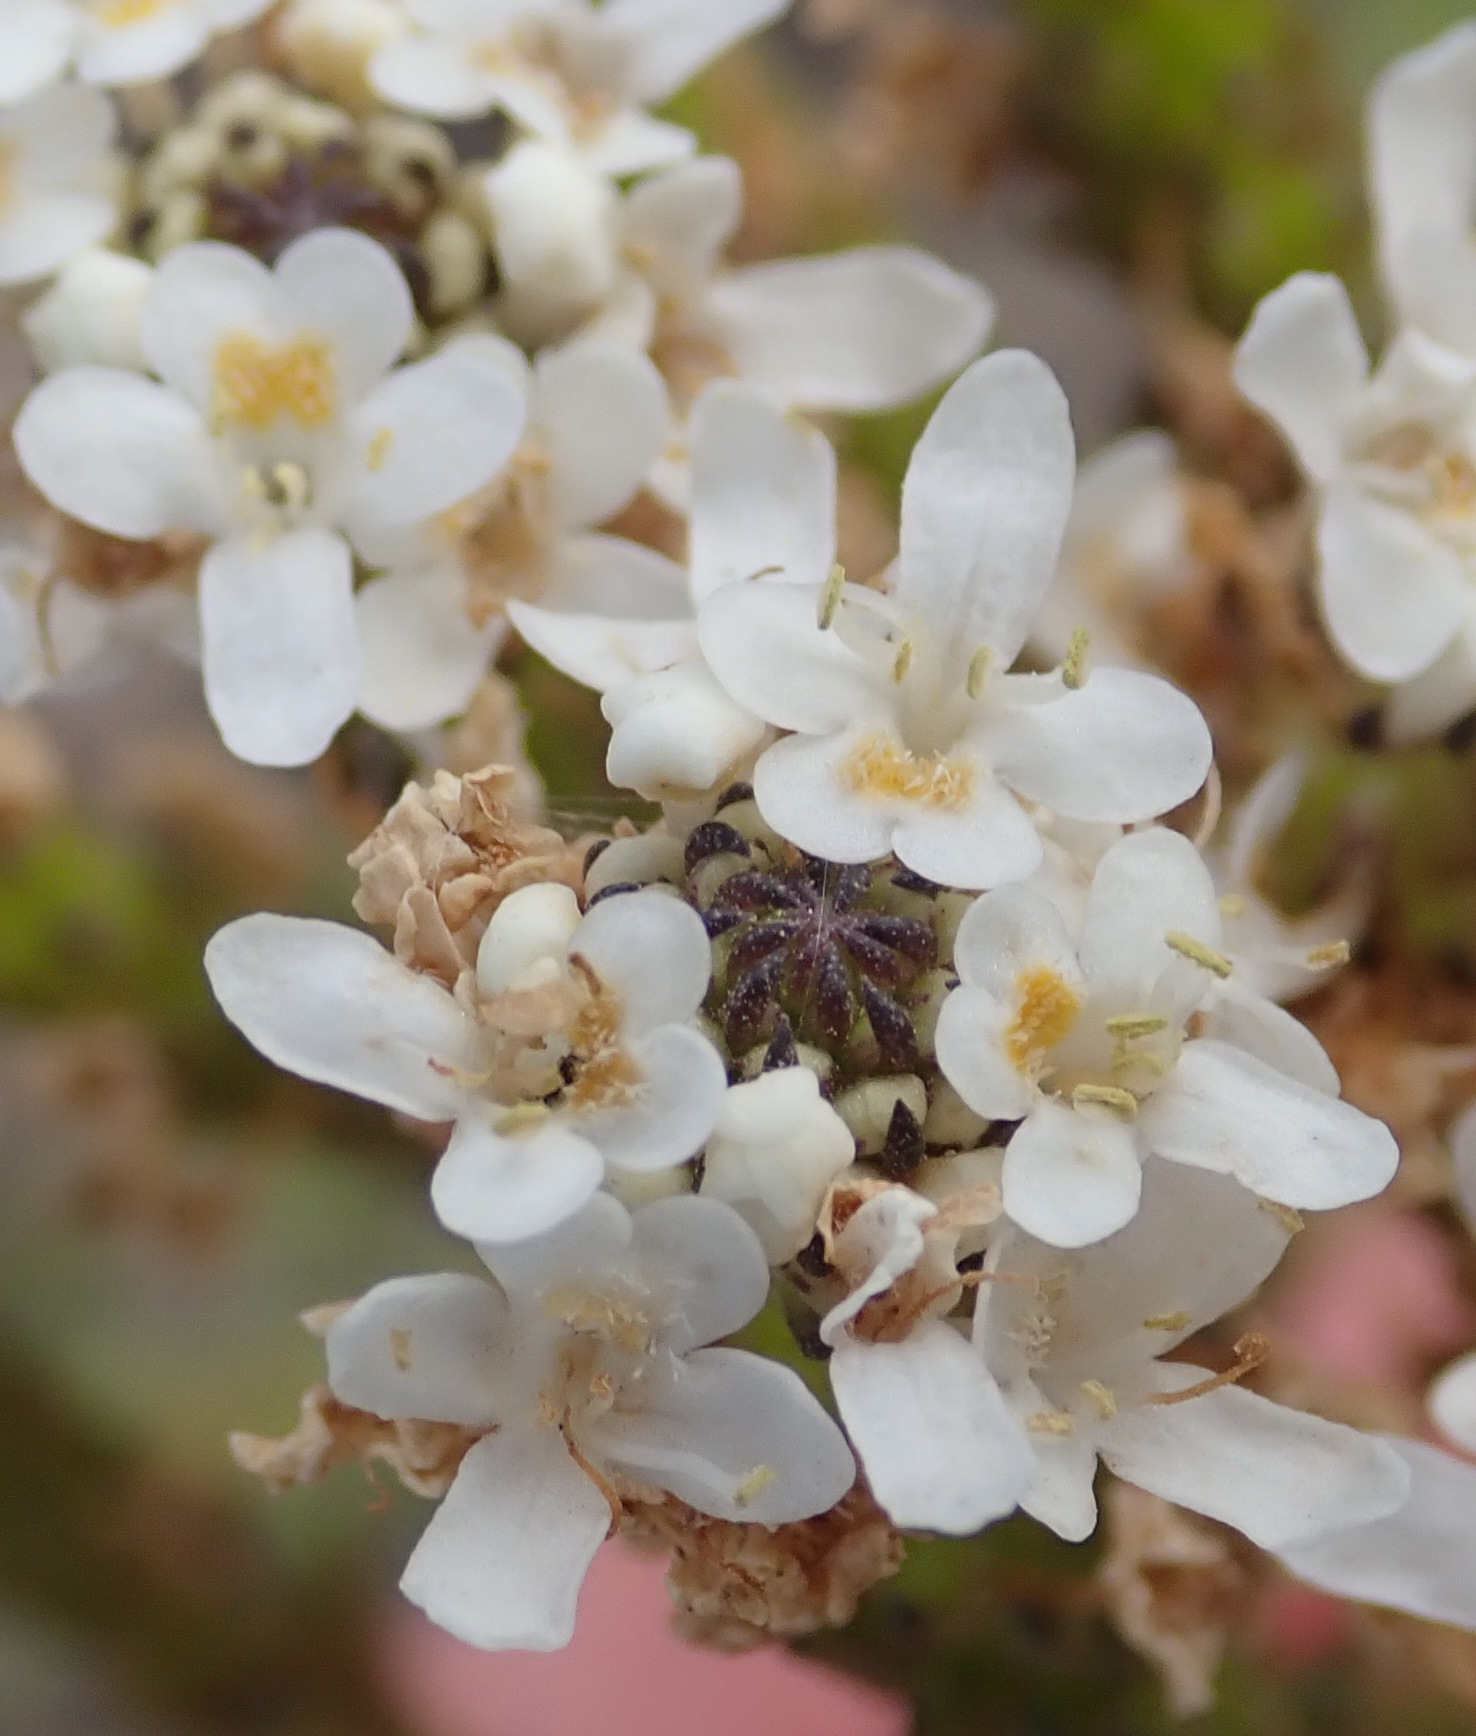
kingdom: Plantae
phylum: Tracheophyta
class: Magnoliopsida
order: Lamiales
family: Scrophulariaceae
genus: Pseudoselago
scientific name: Pseudoselago outeniquensis
